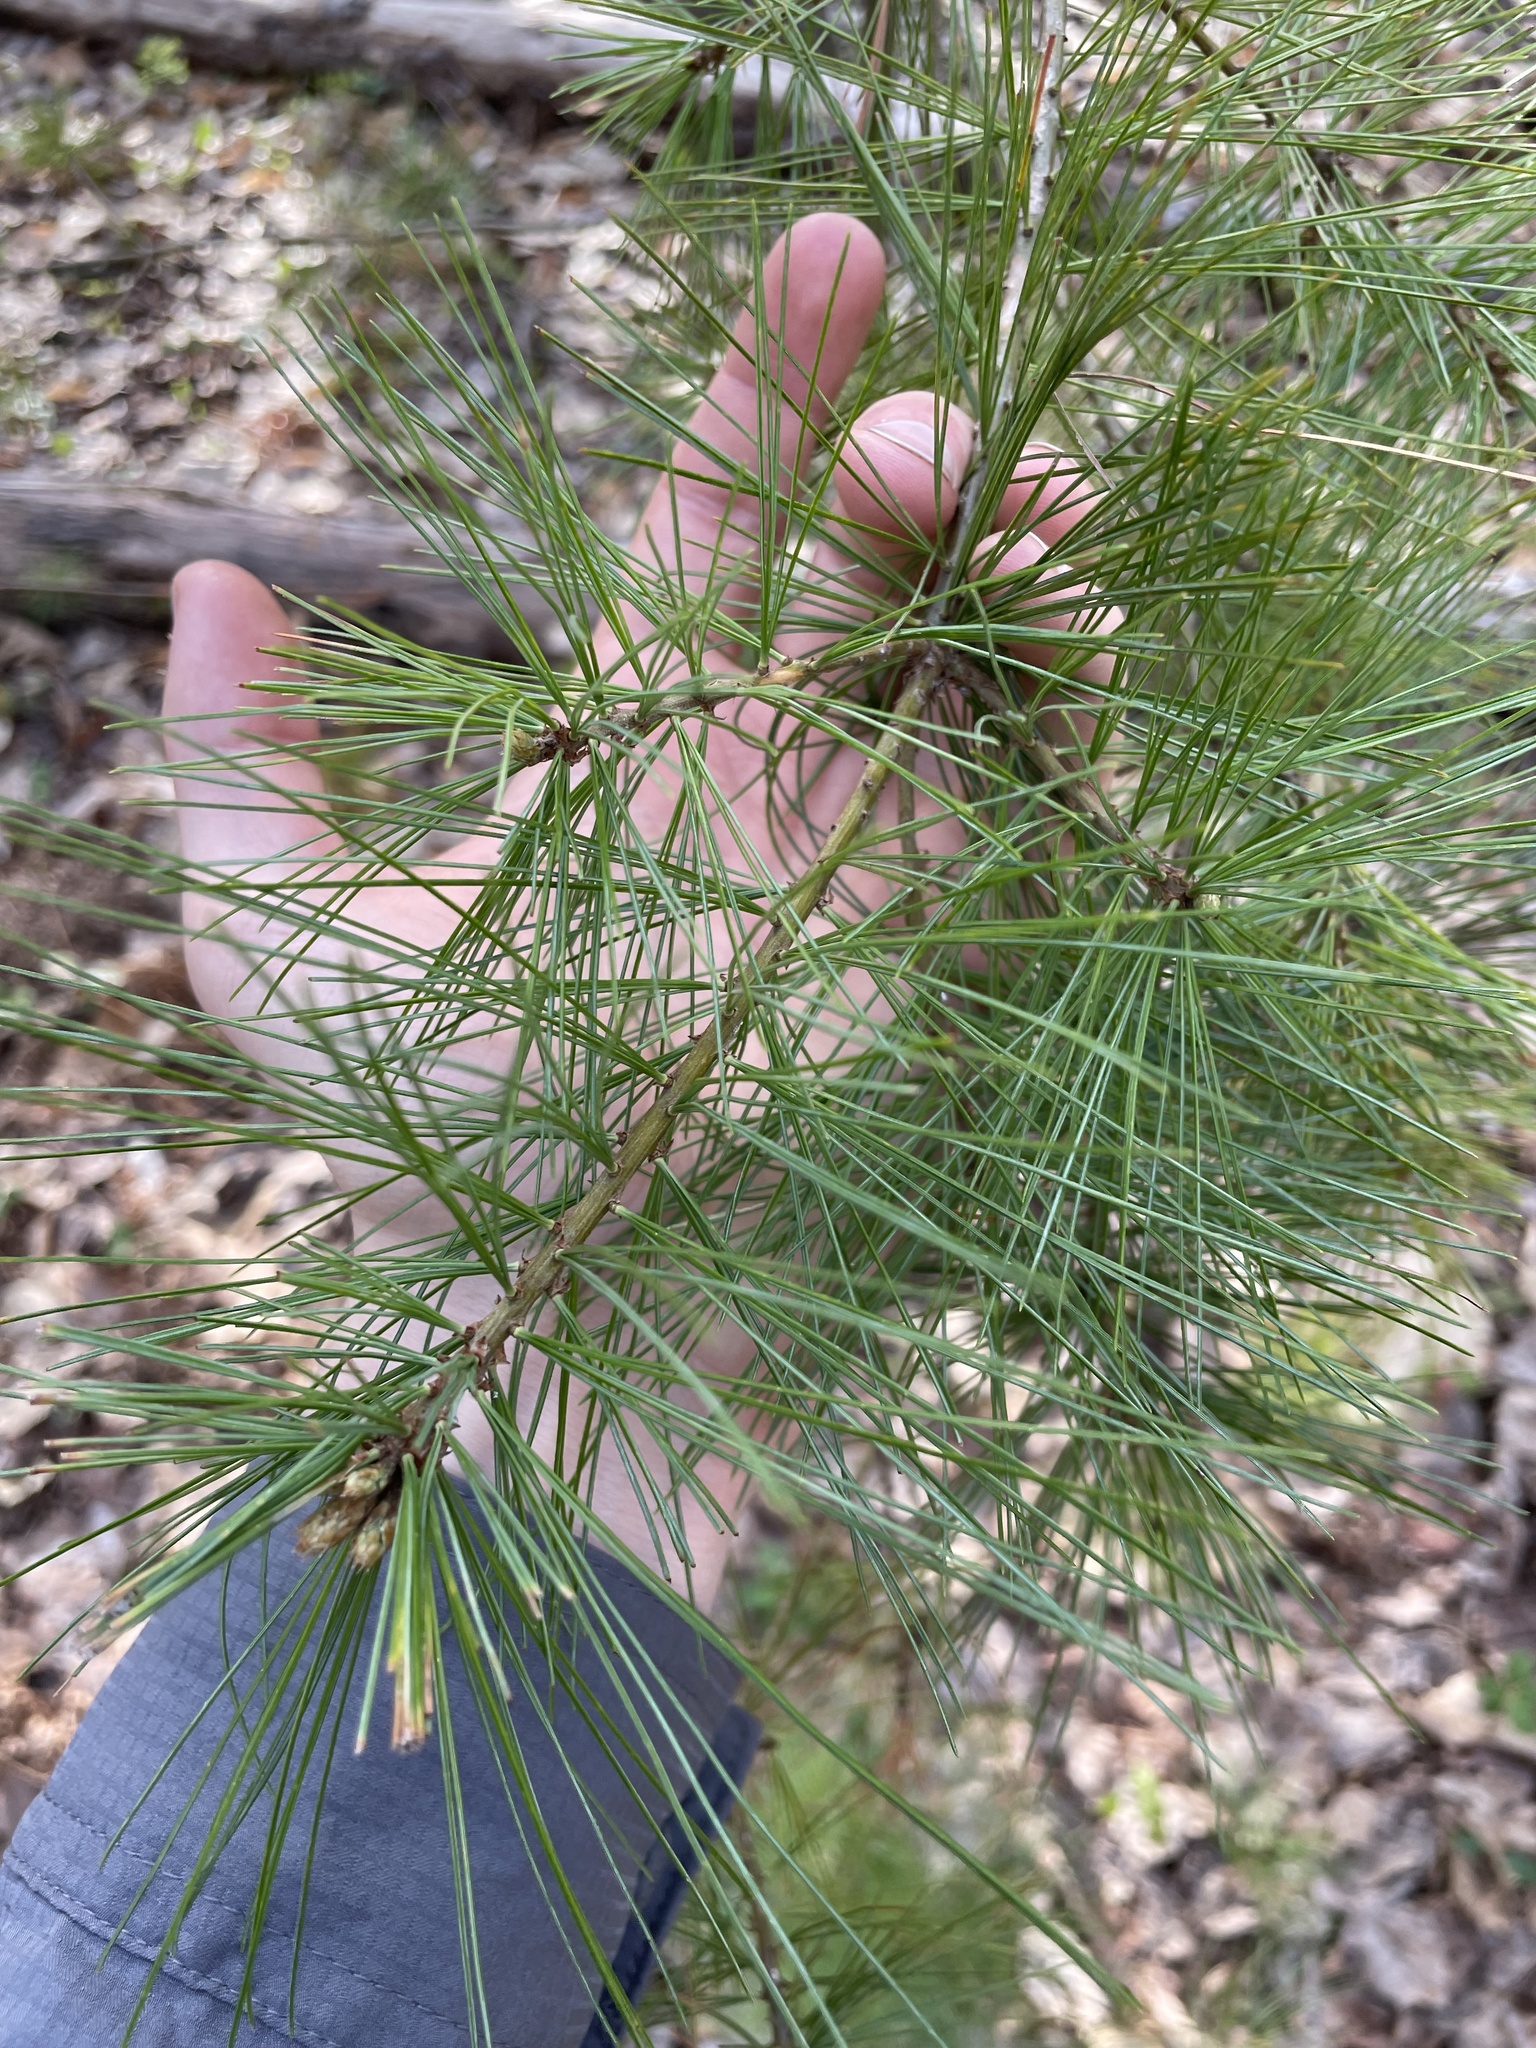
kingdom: Plantae
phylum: Tracheophyta
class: Pinopsida
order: Pinales
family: Pinaceae
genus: Pinus
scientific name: Pinus strobus
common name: Weymouth pine
